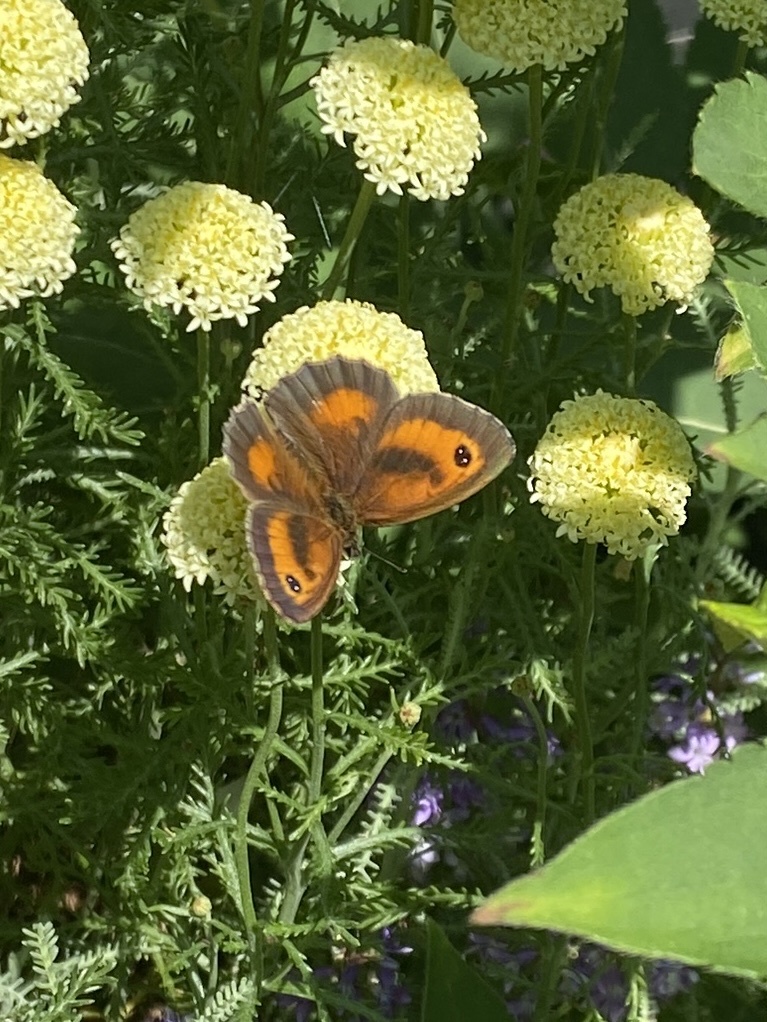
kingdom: Animalia
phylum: Arthropoda
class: Insecta
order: Lepidoptera
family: Nymphalidae
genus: Pyronia
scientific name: Pyronia tithonus
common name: Gatekeeper
